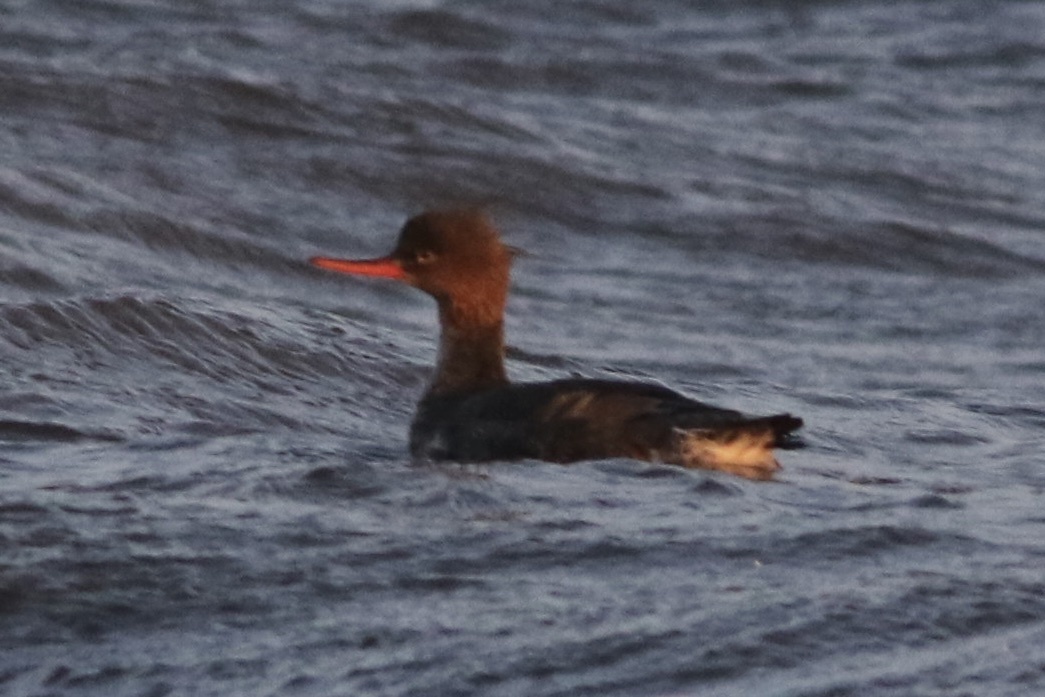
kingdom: Animalia
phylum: Chordata
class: Aves
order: Anseriformes
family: Anatidae
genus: Mergus
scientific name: Mergus serrator
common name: Red-breasted merganser
